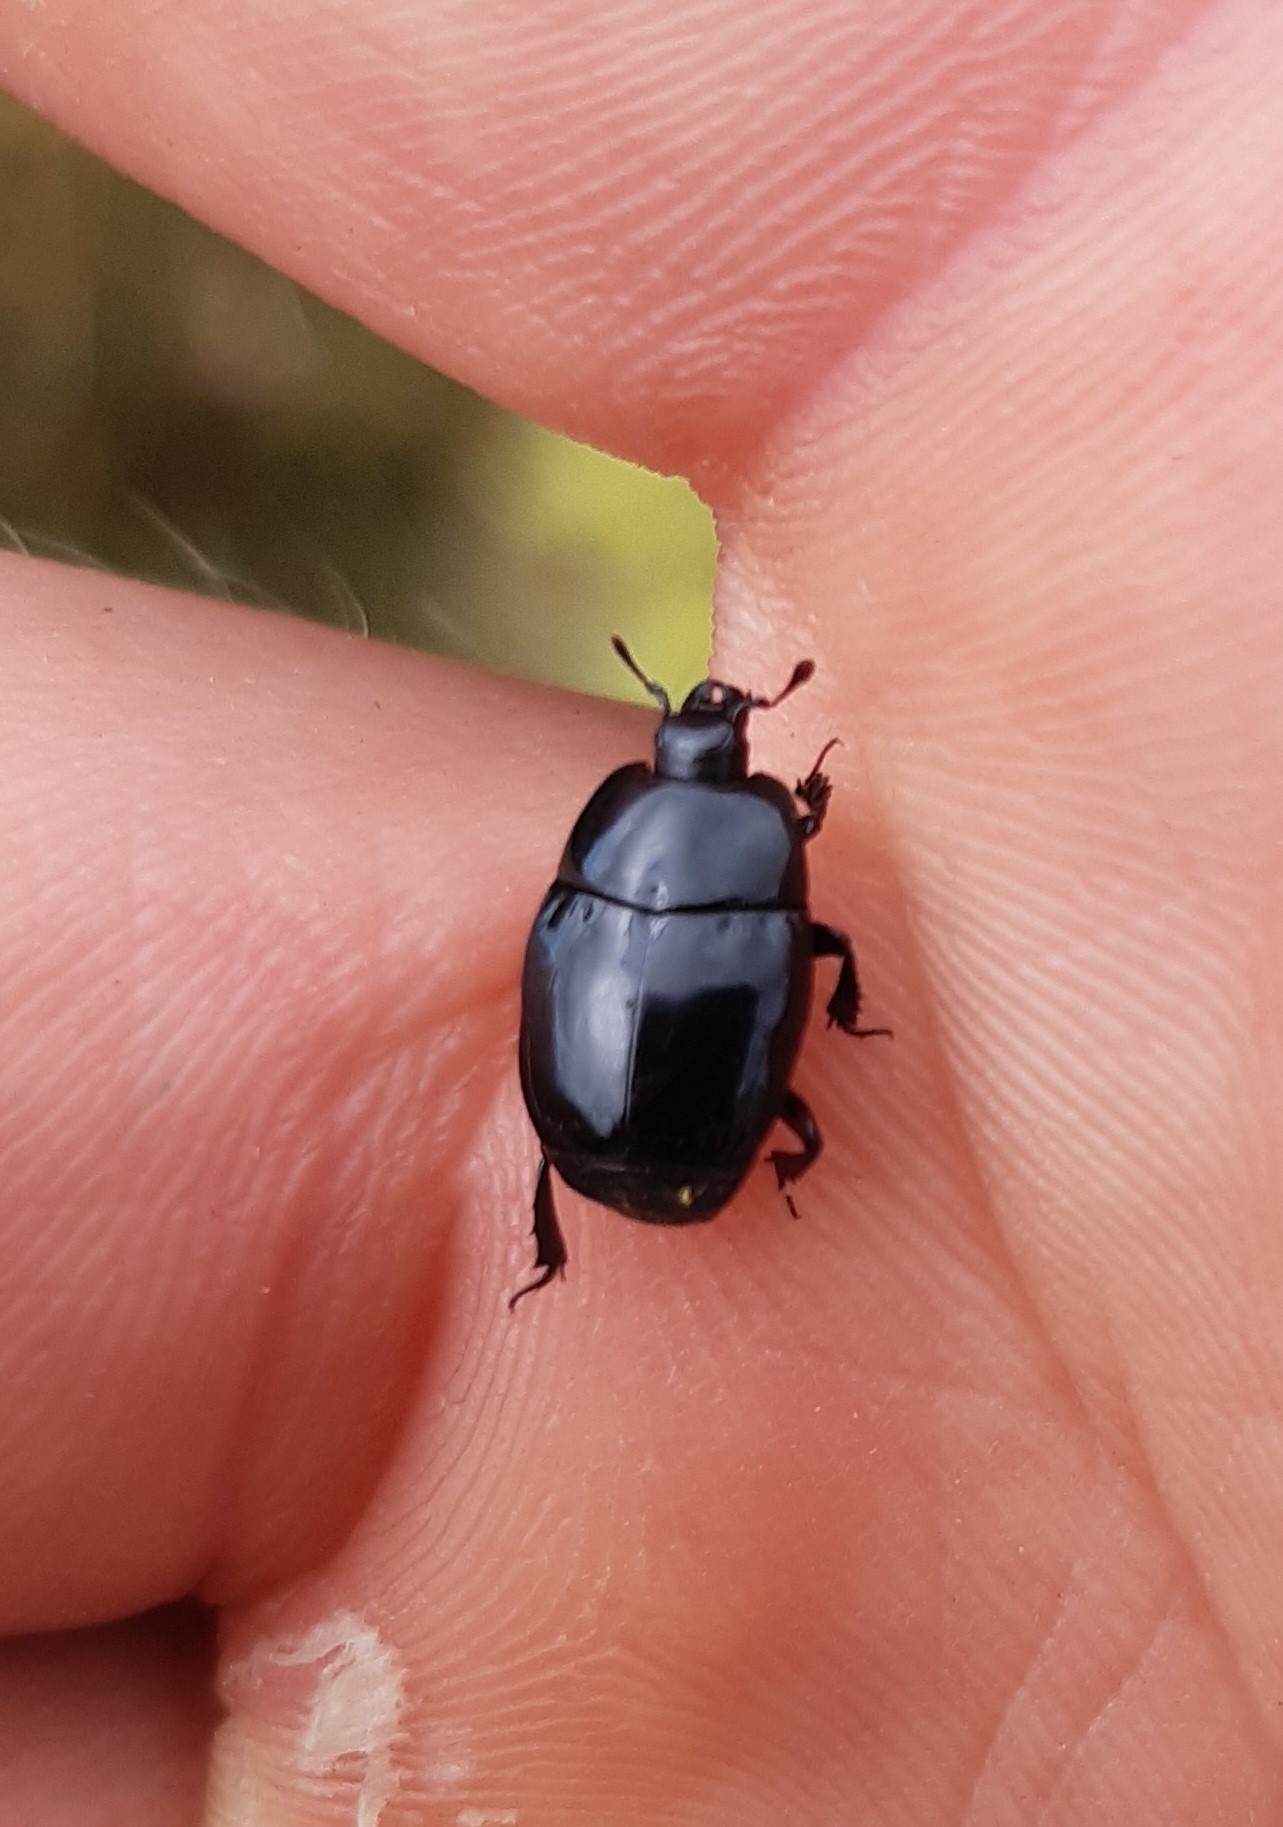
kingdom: Animalia
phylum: Arthropoda
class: Insecta
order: Coleoptera
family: Histeridae
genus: Aulacosternus
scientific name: Aulacosternus zelandicus
